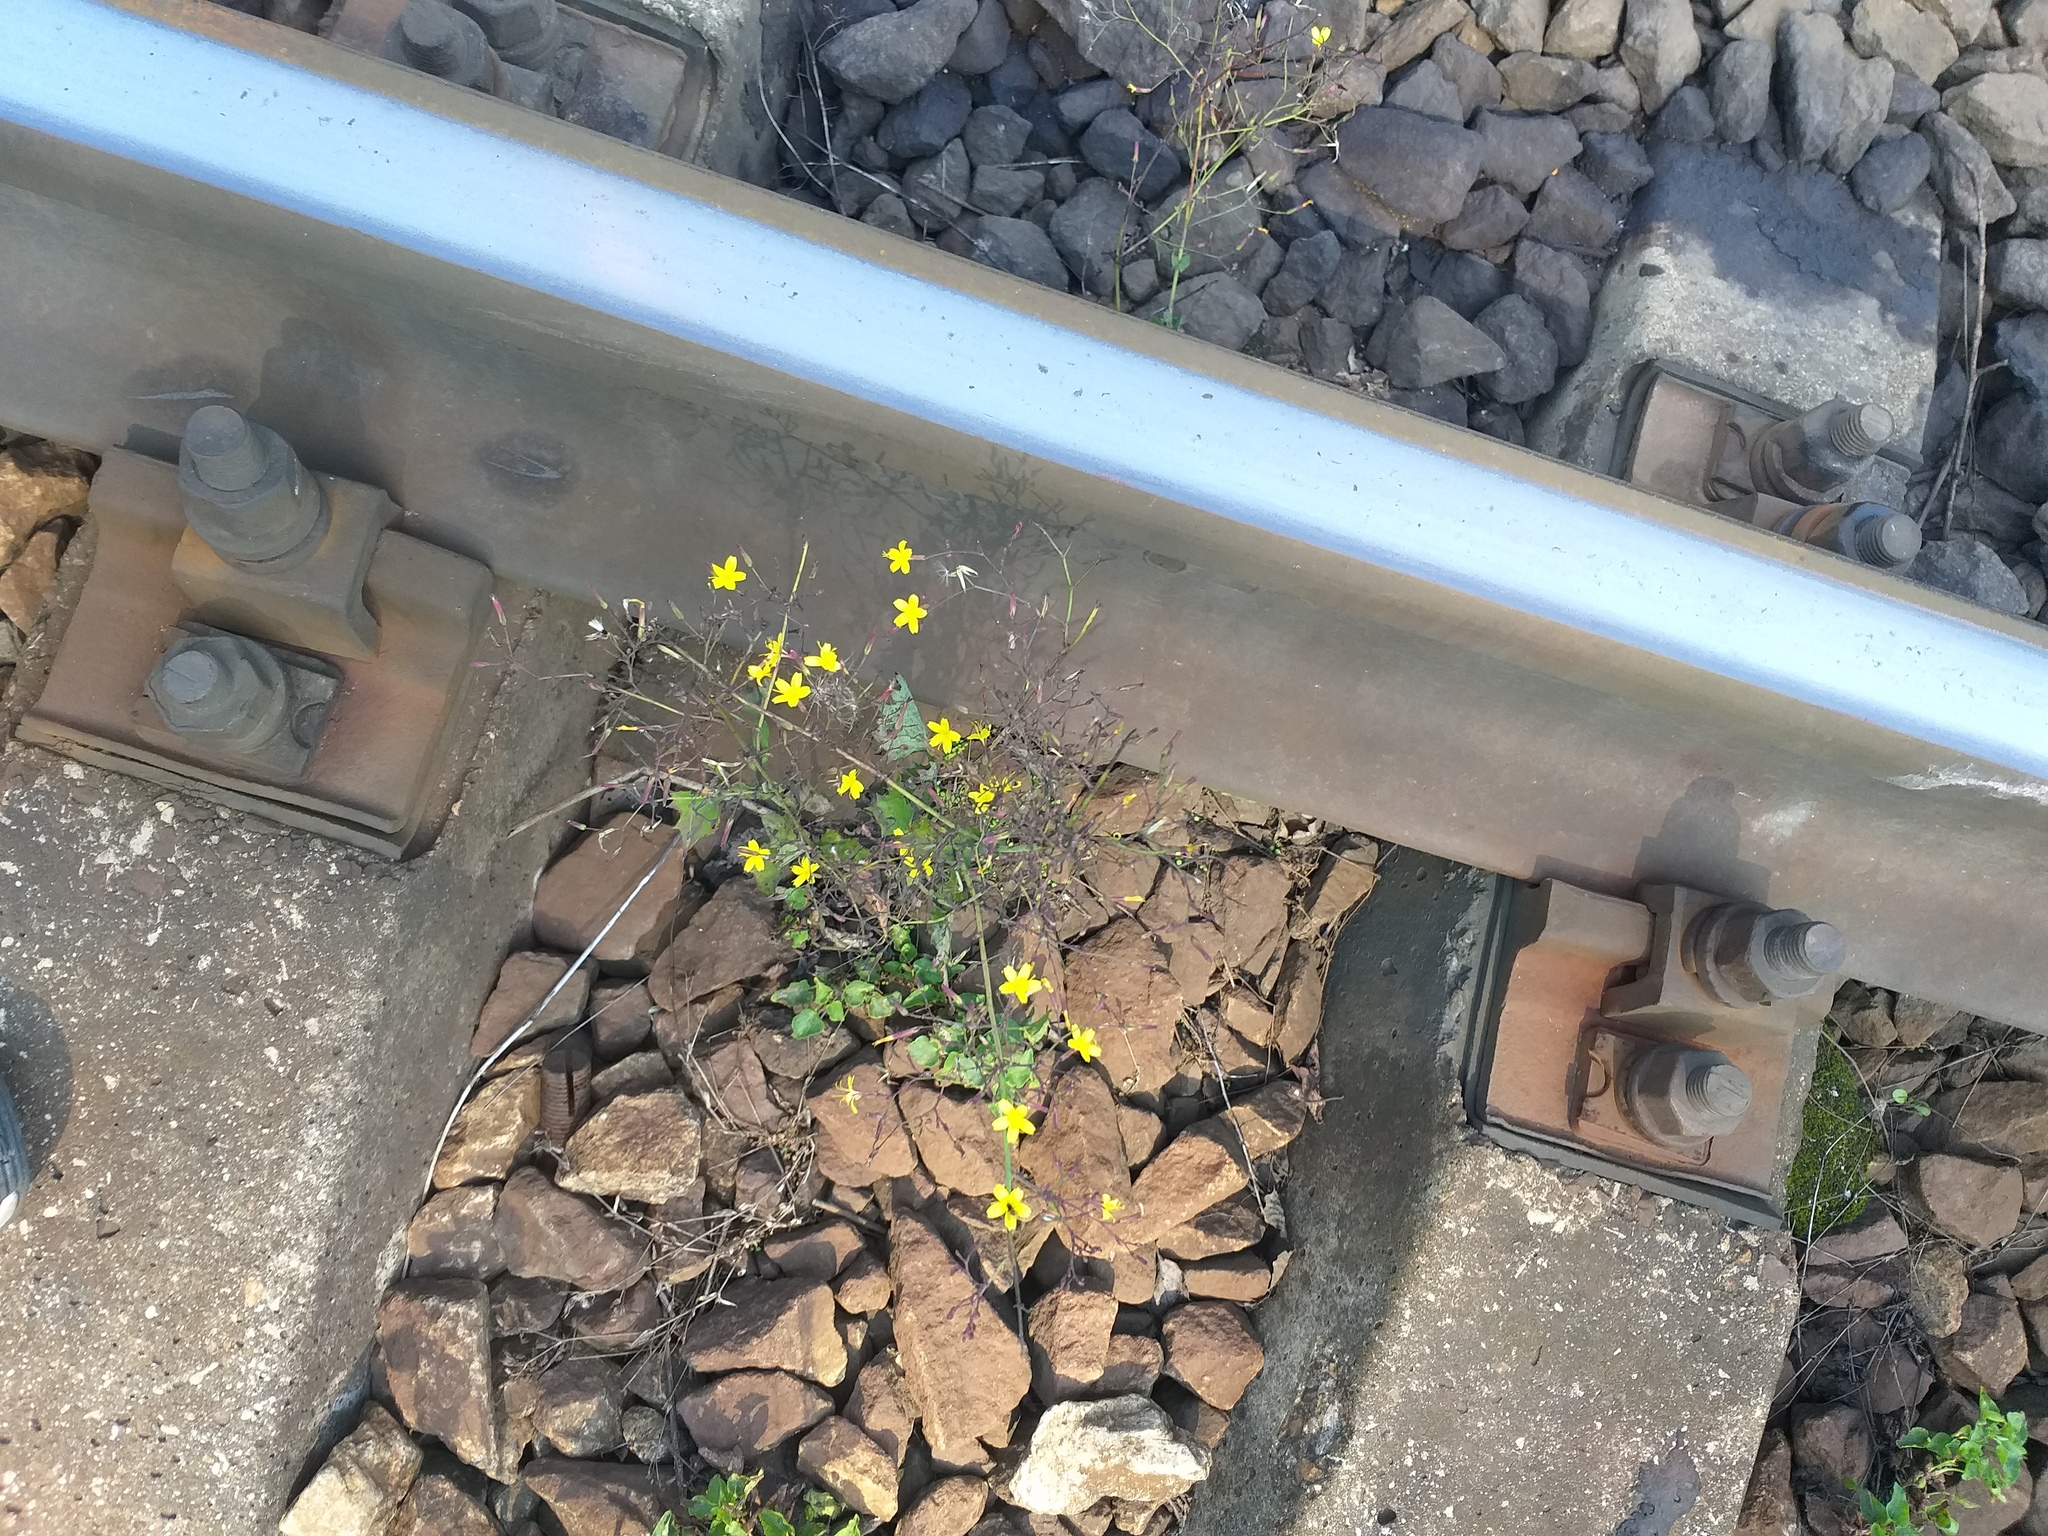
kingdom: Plantae
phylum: Tracheophyta
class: Magnoliopsida
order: Asterales
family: Asteraceae
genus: Mycelis
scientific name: Mycelis muralis
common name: Wall lettuce
